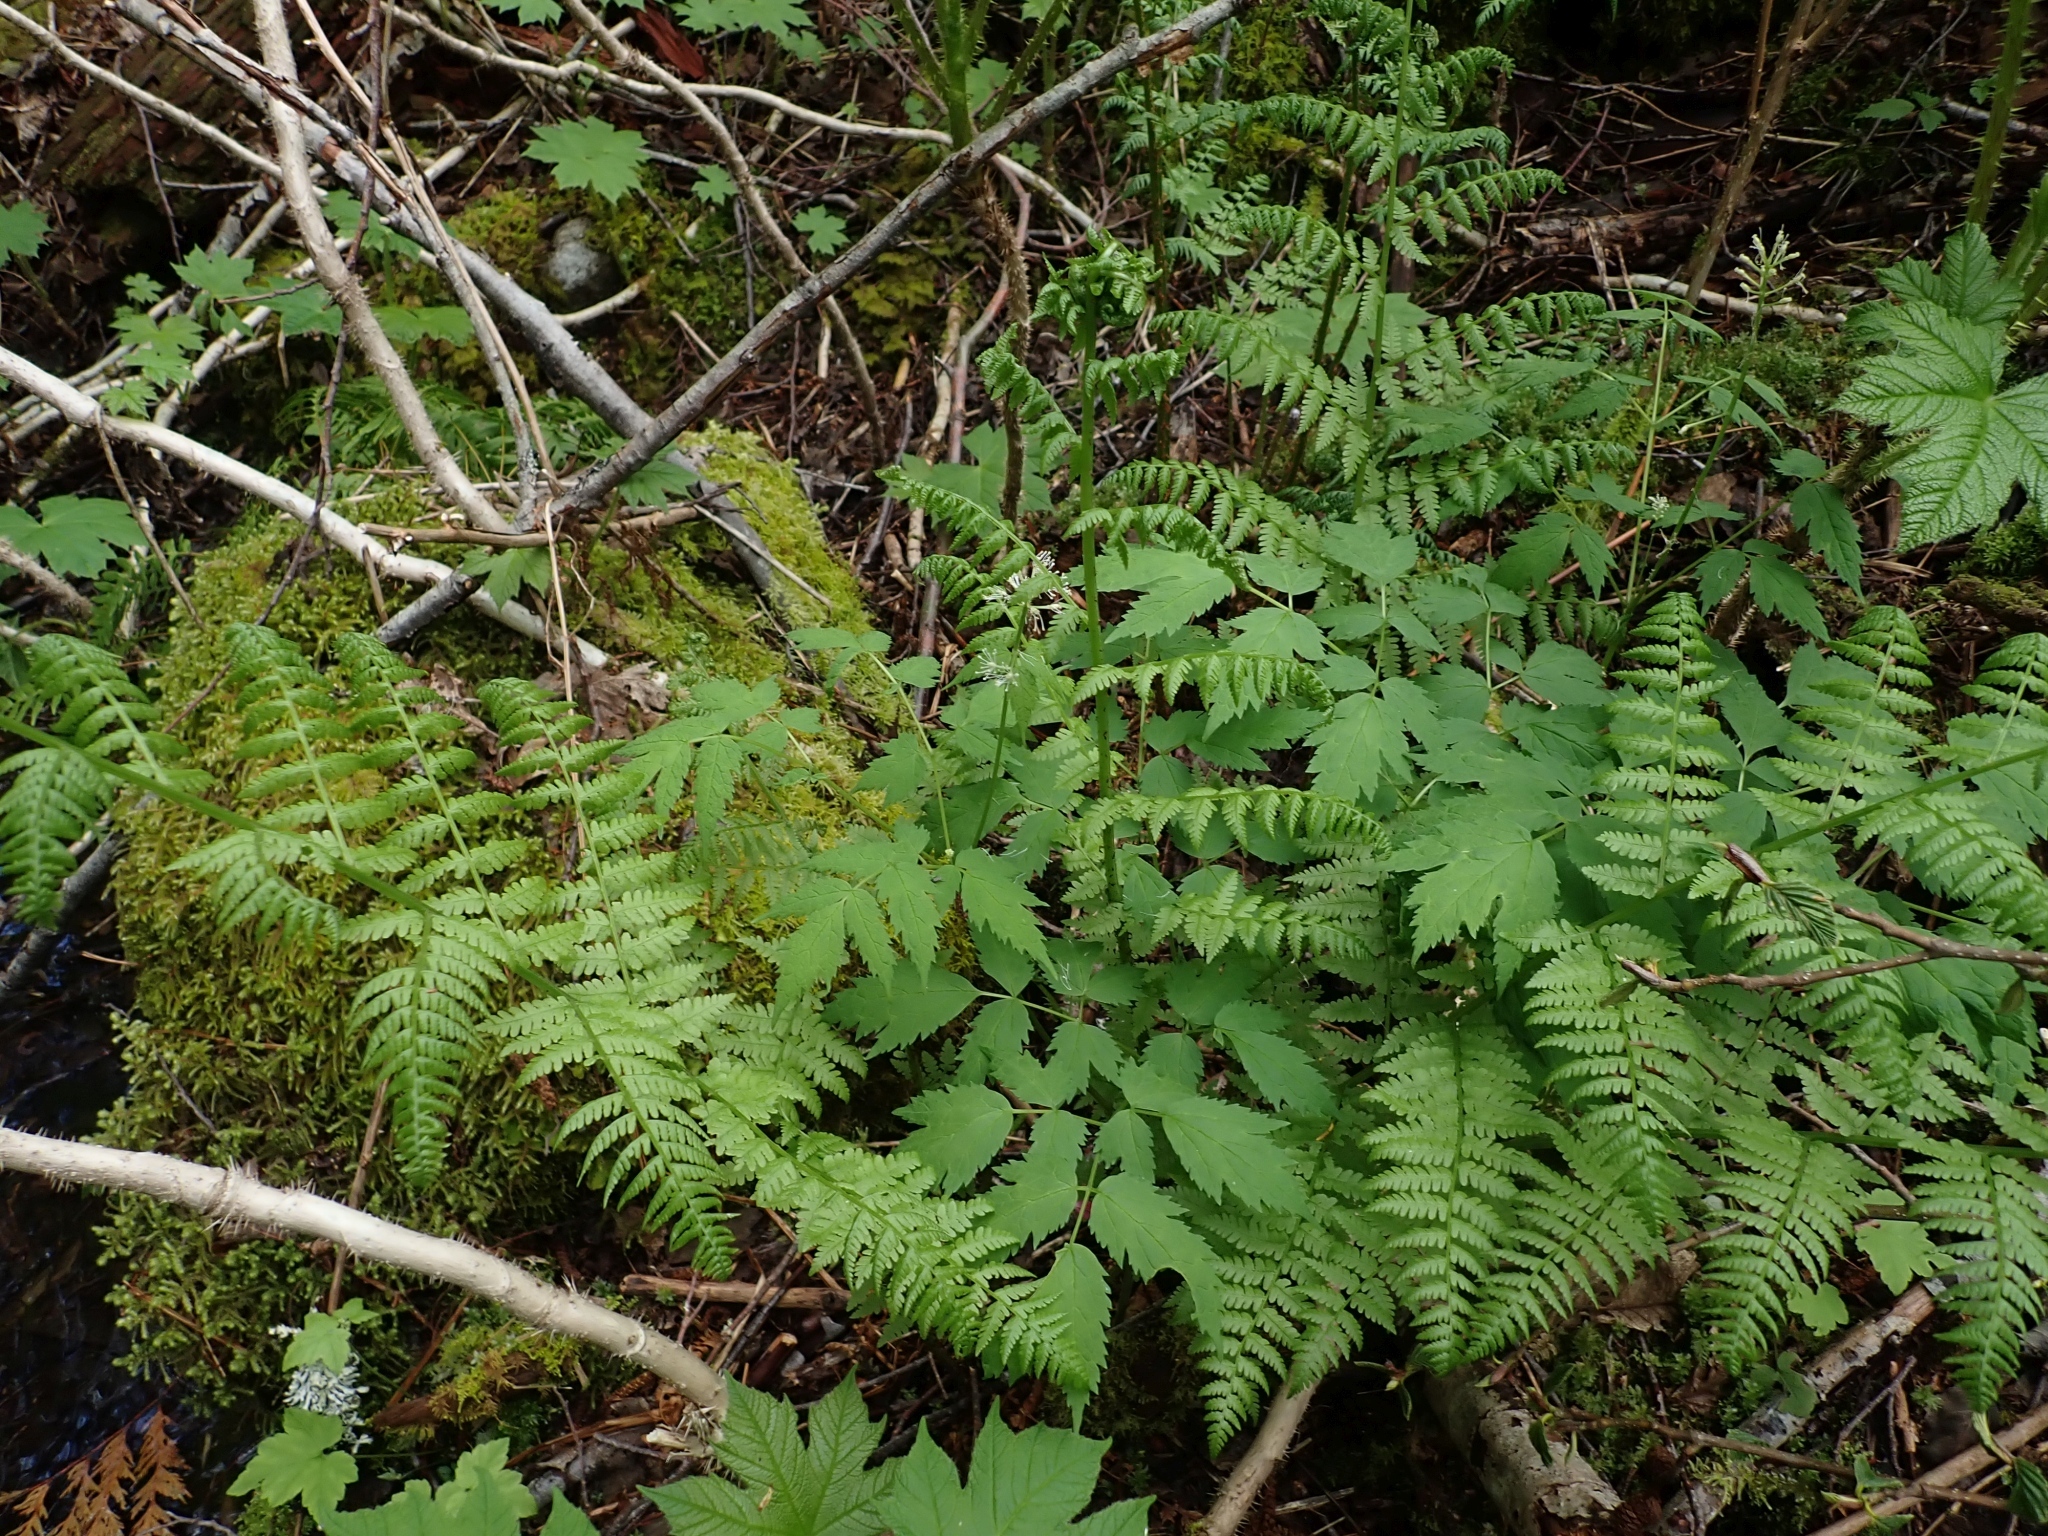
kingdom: Plantae
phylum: Tracheophyta
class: Magnoliopsida
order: Ranunculales
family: Ranunculaceae
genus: Actaea
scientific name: Actaea rubra
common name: Red baneberry
